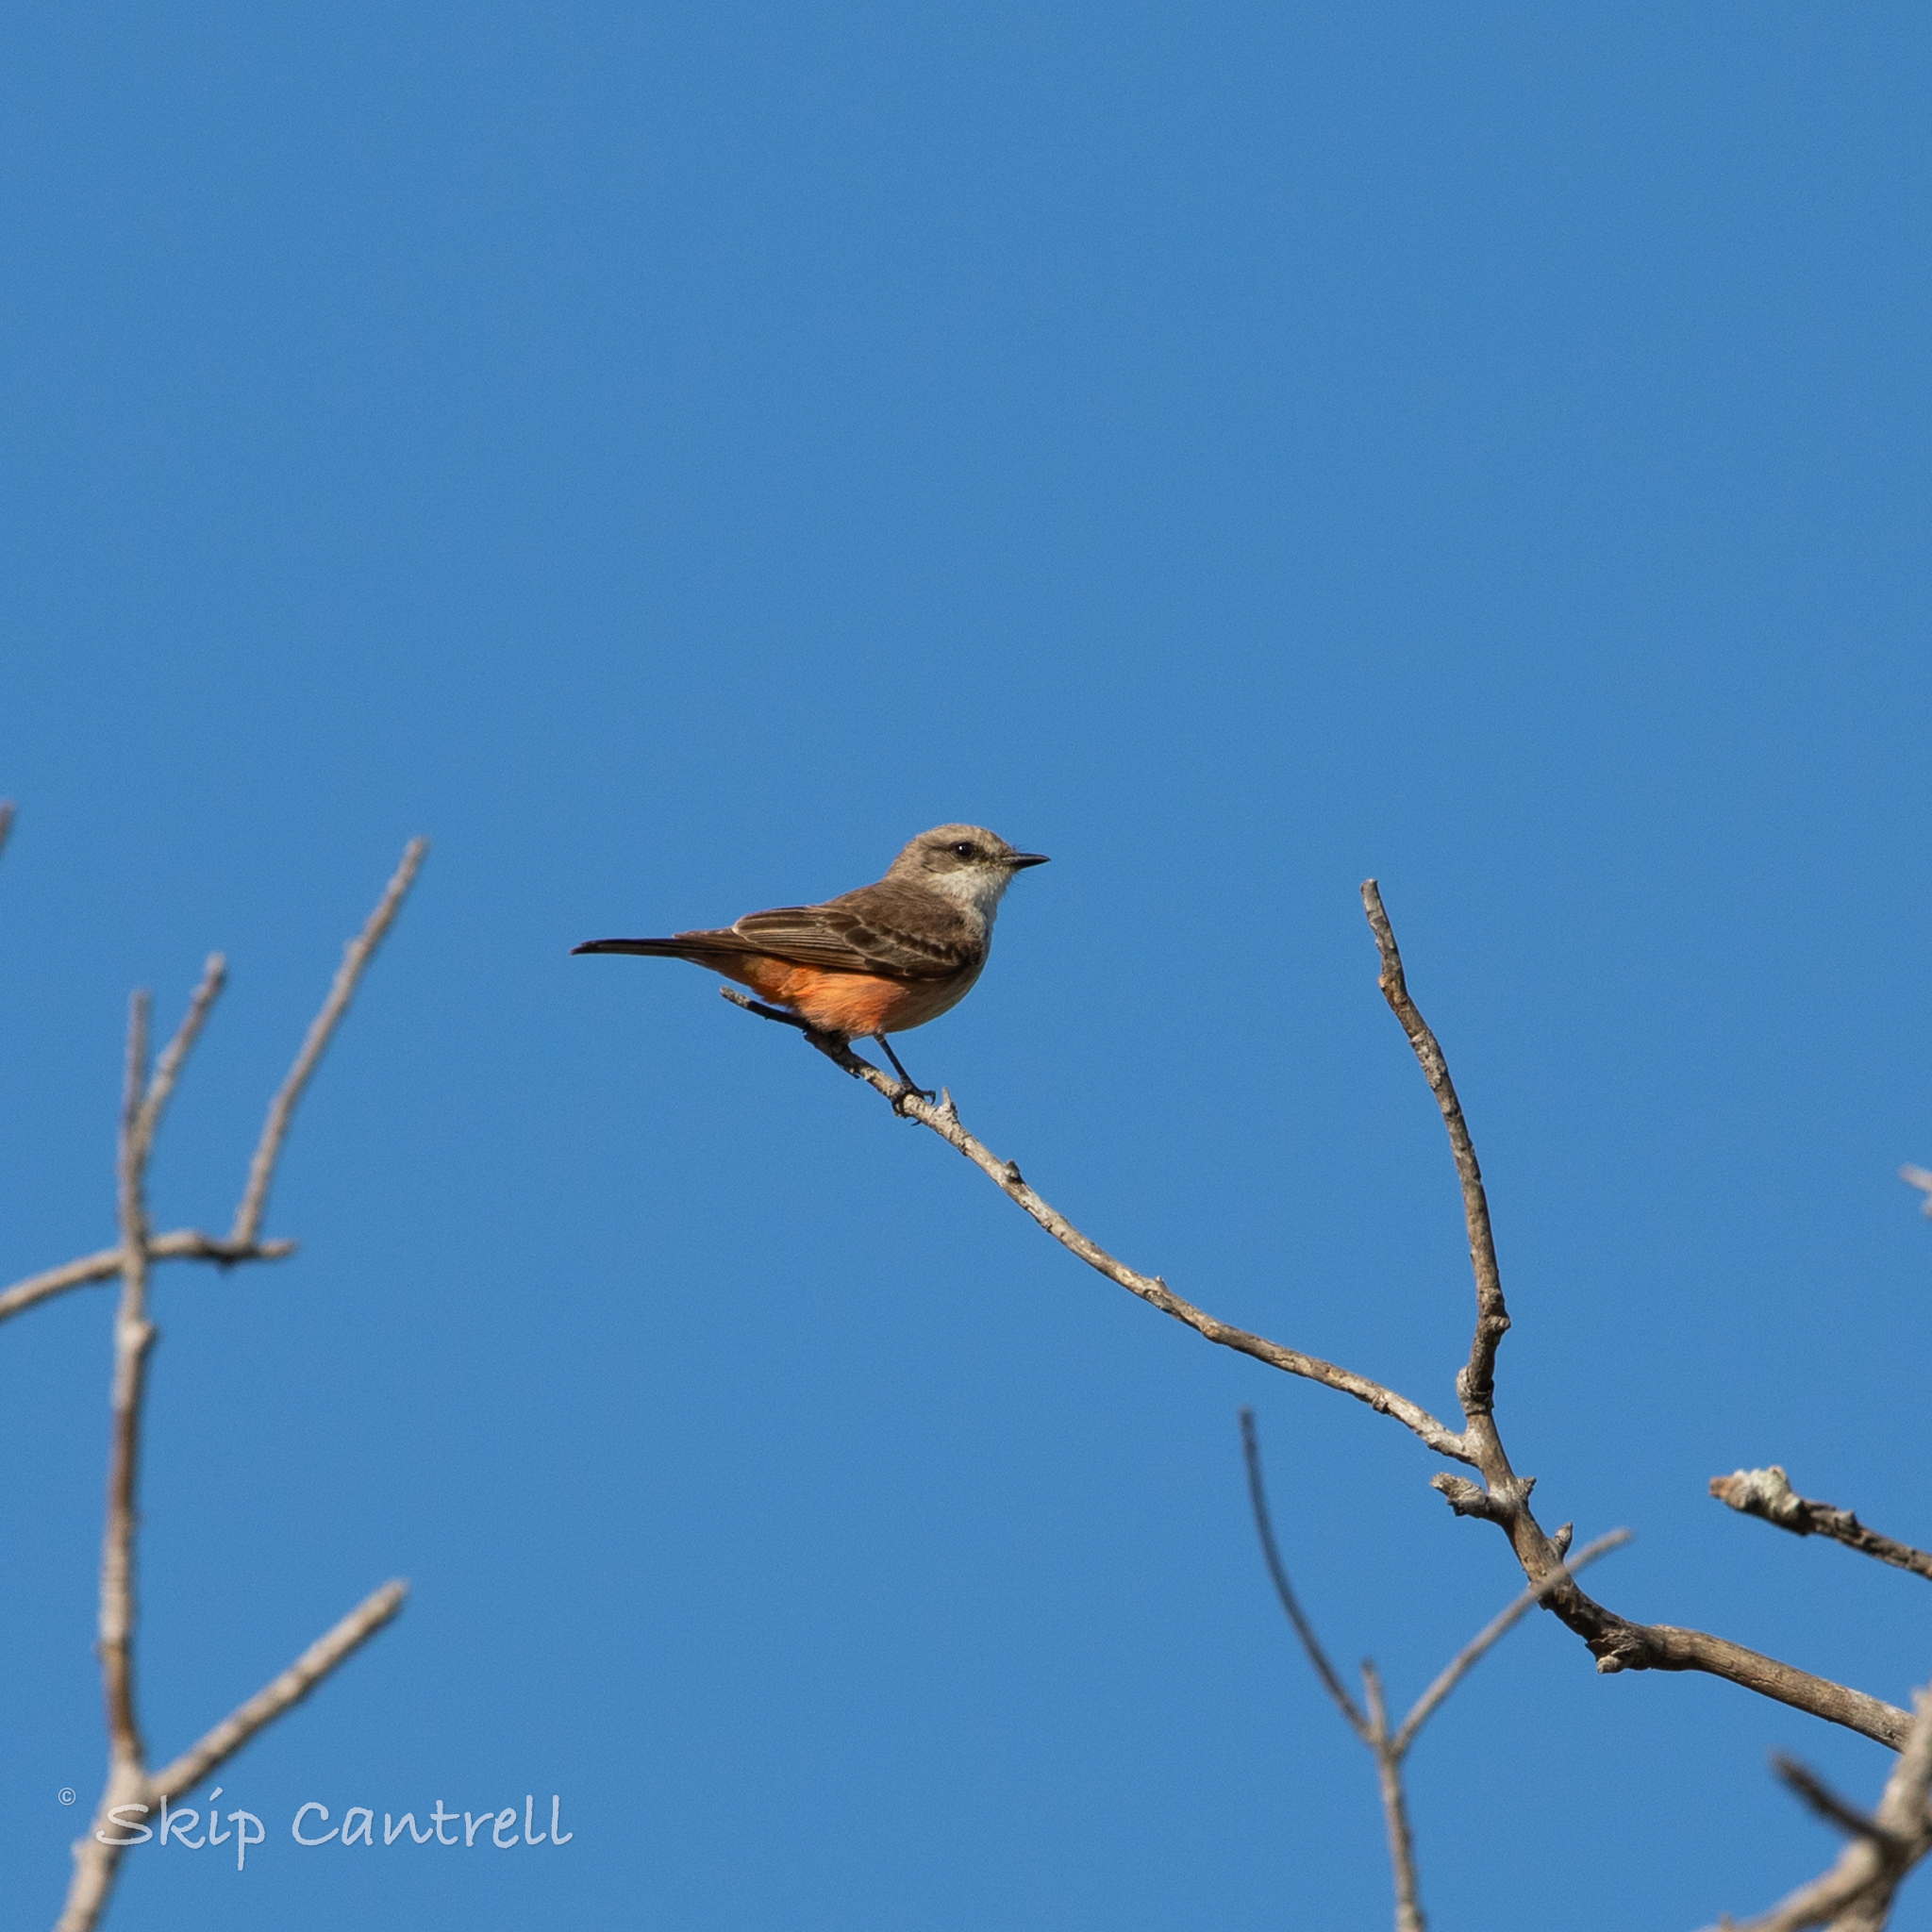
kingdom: Animalia
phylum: Chordata
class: Aves
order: Passeriformes
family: Tyrannidae
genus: Pyrocephalus
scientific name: Pyrocephalus rubinus
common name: Vermilion flycatcher
